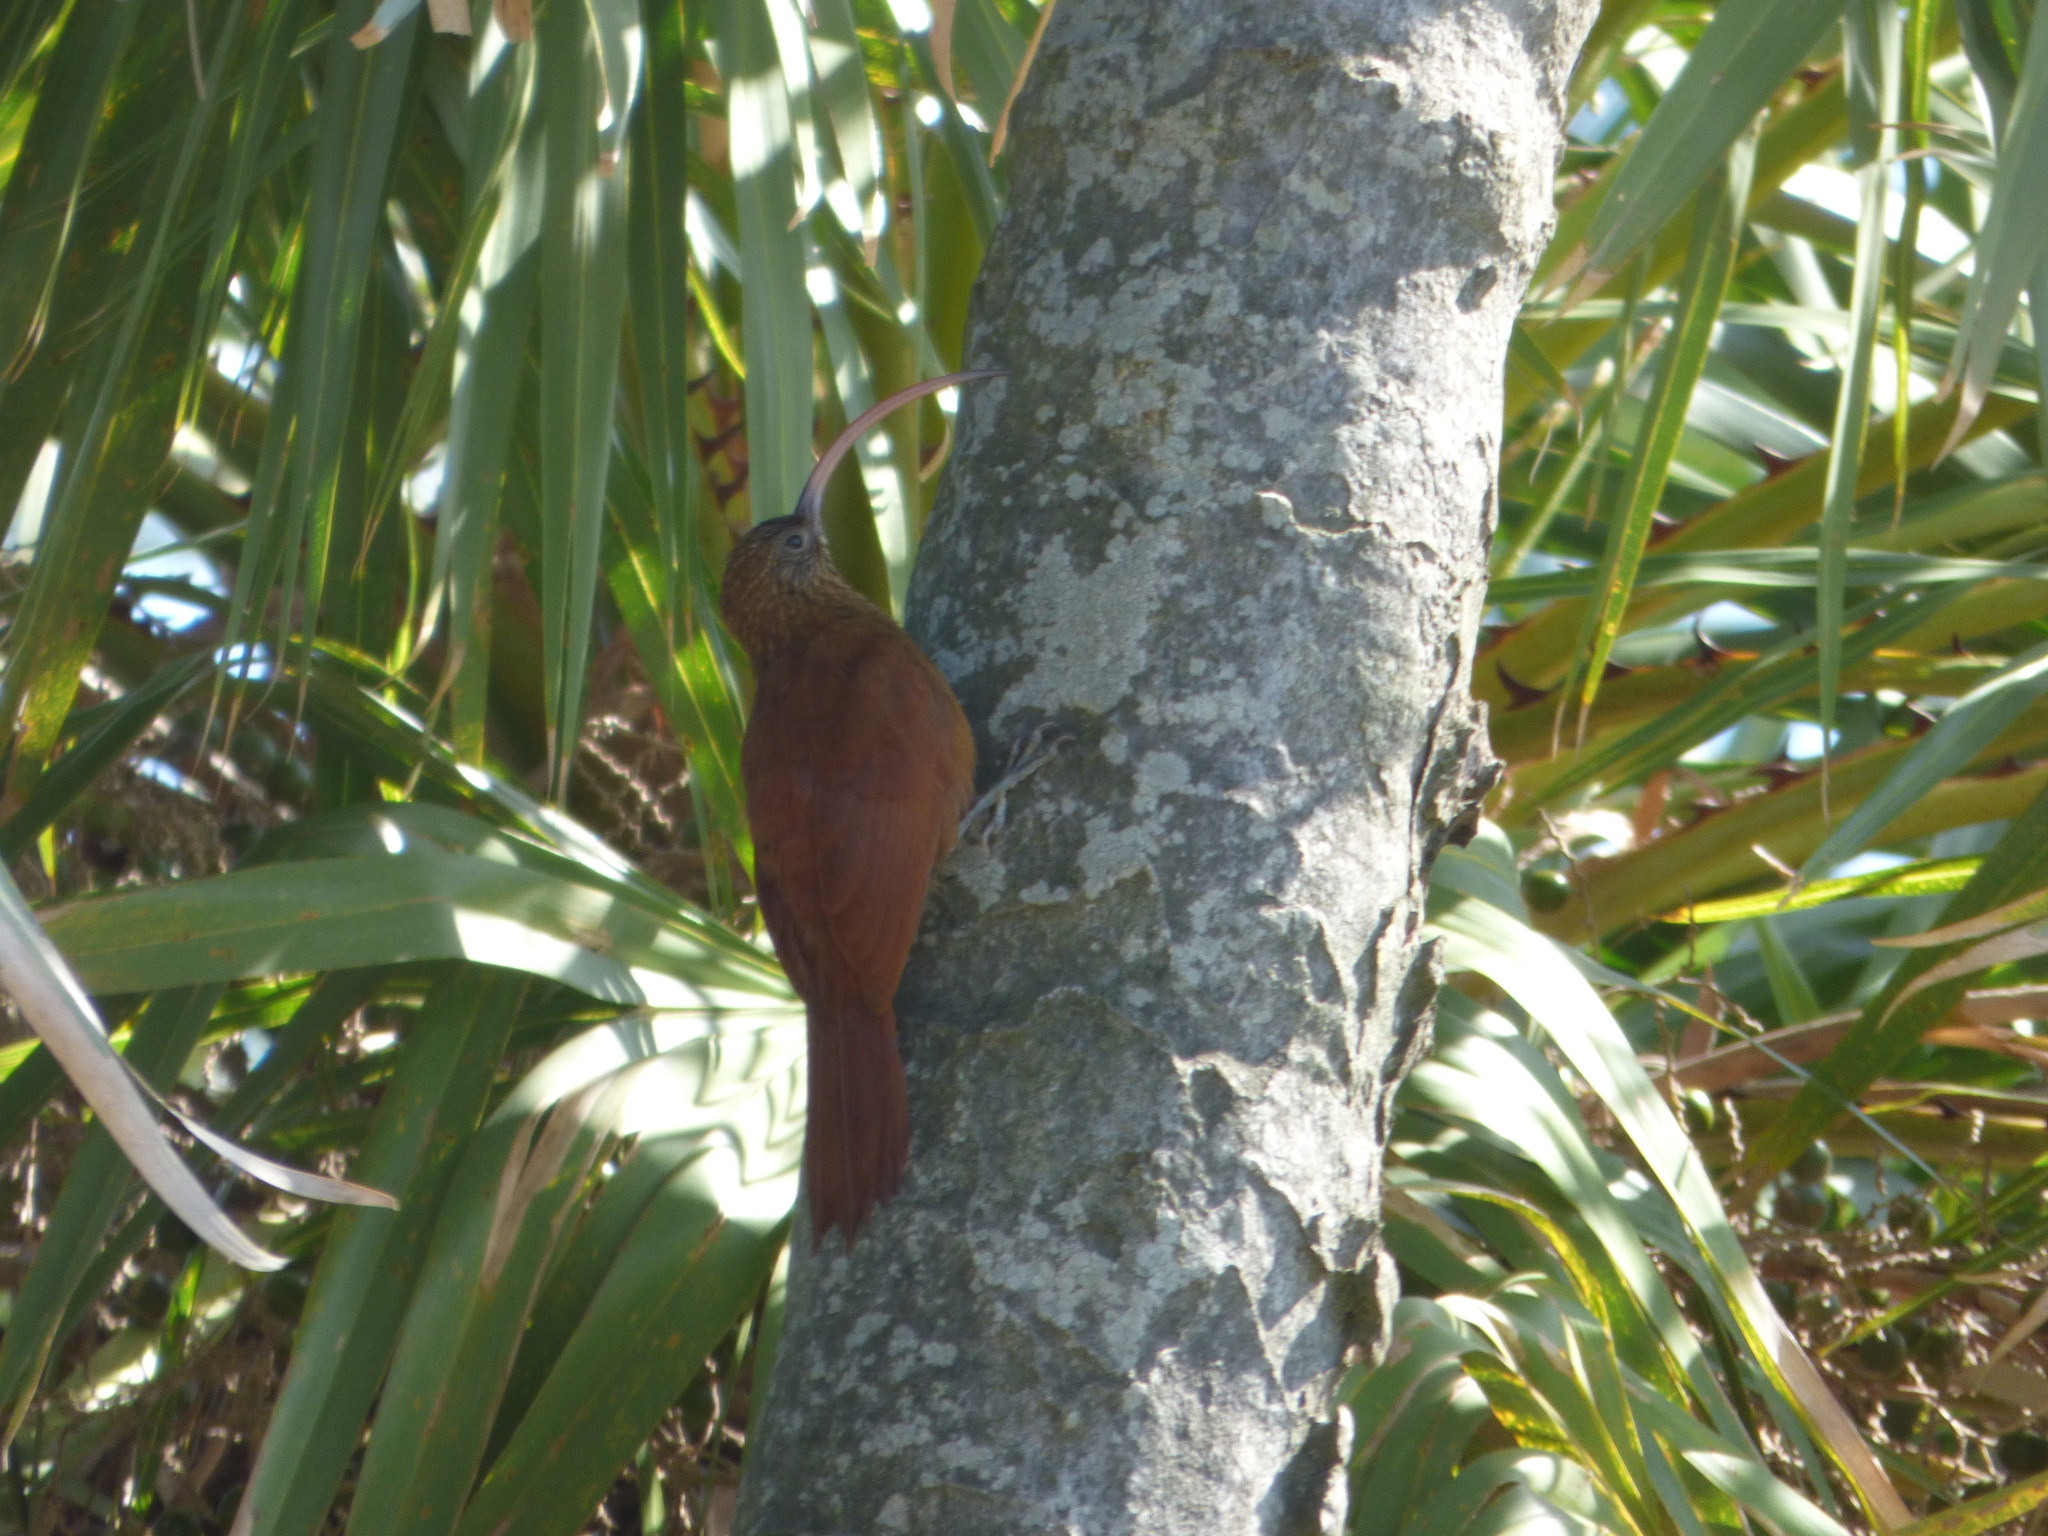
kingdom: Animalia
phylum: Chordata
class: Aves
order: Passeriformes
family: Furnariidae
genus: Campylorhamphus
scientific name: Campylorhamphus trochilirostris
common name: Red-billed scythebill
